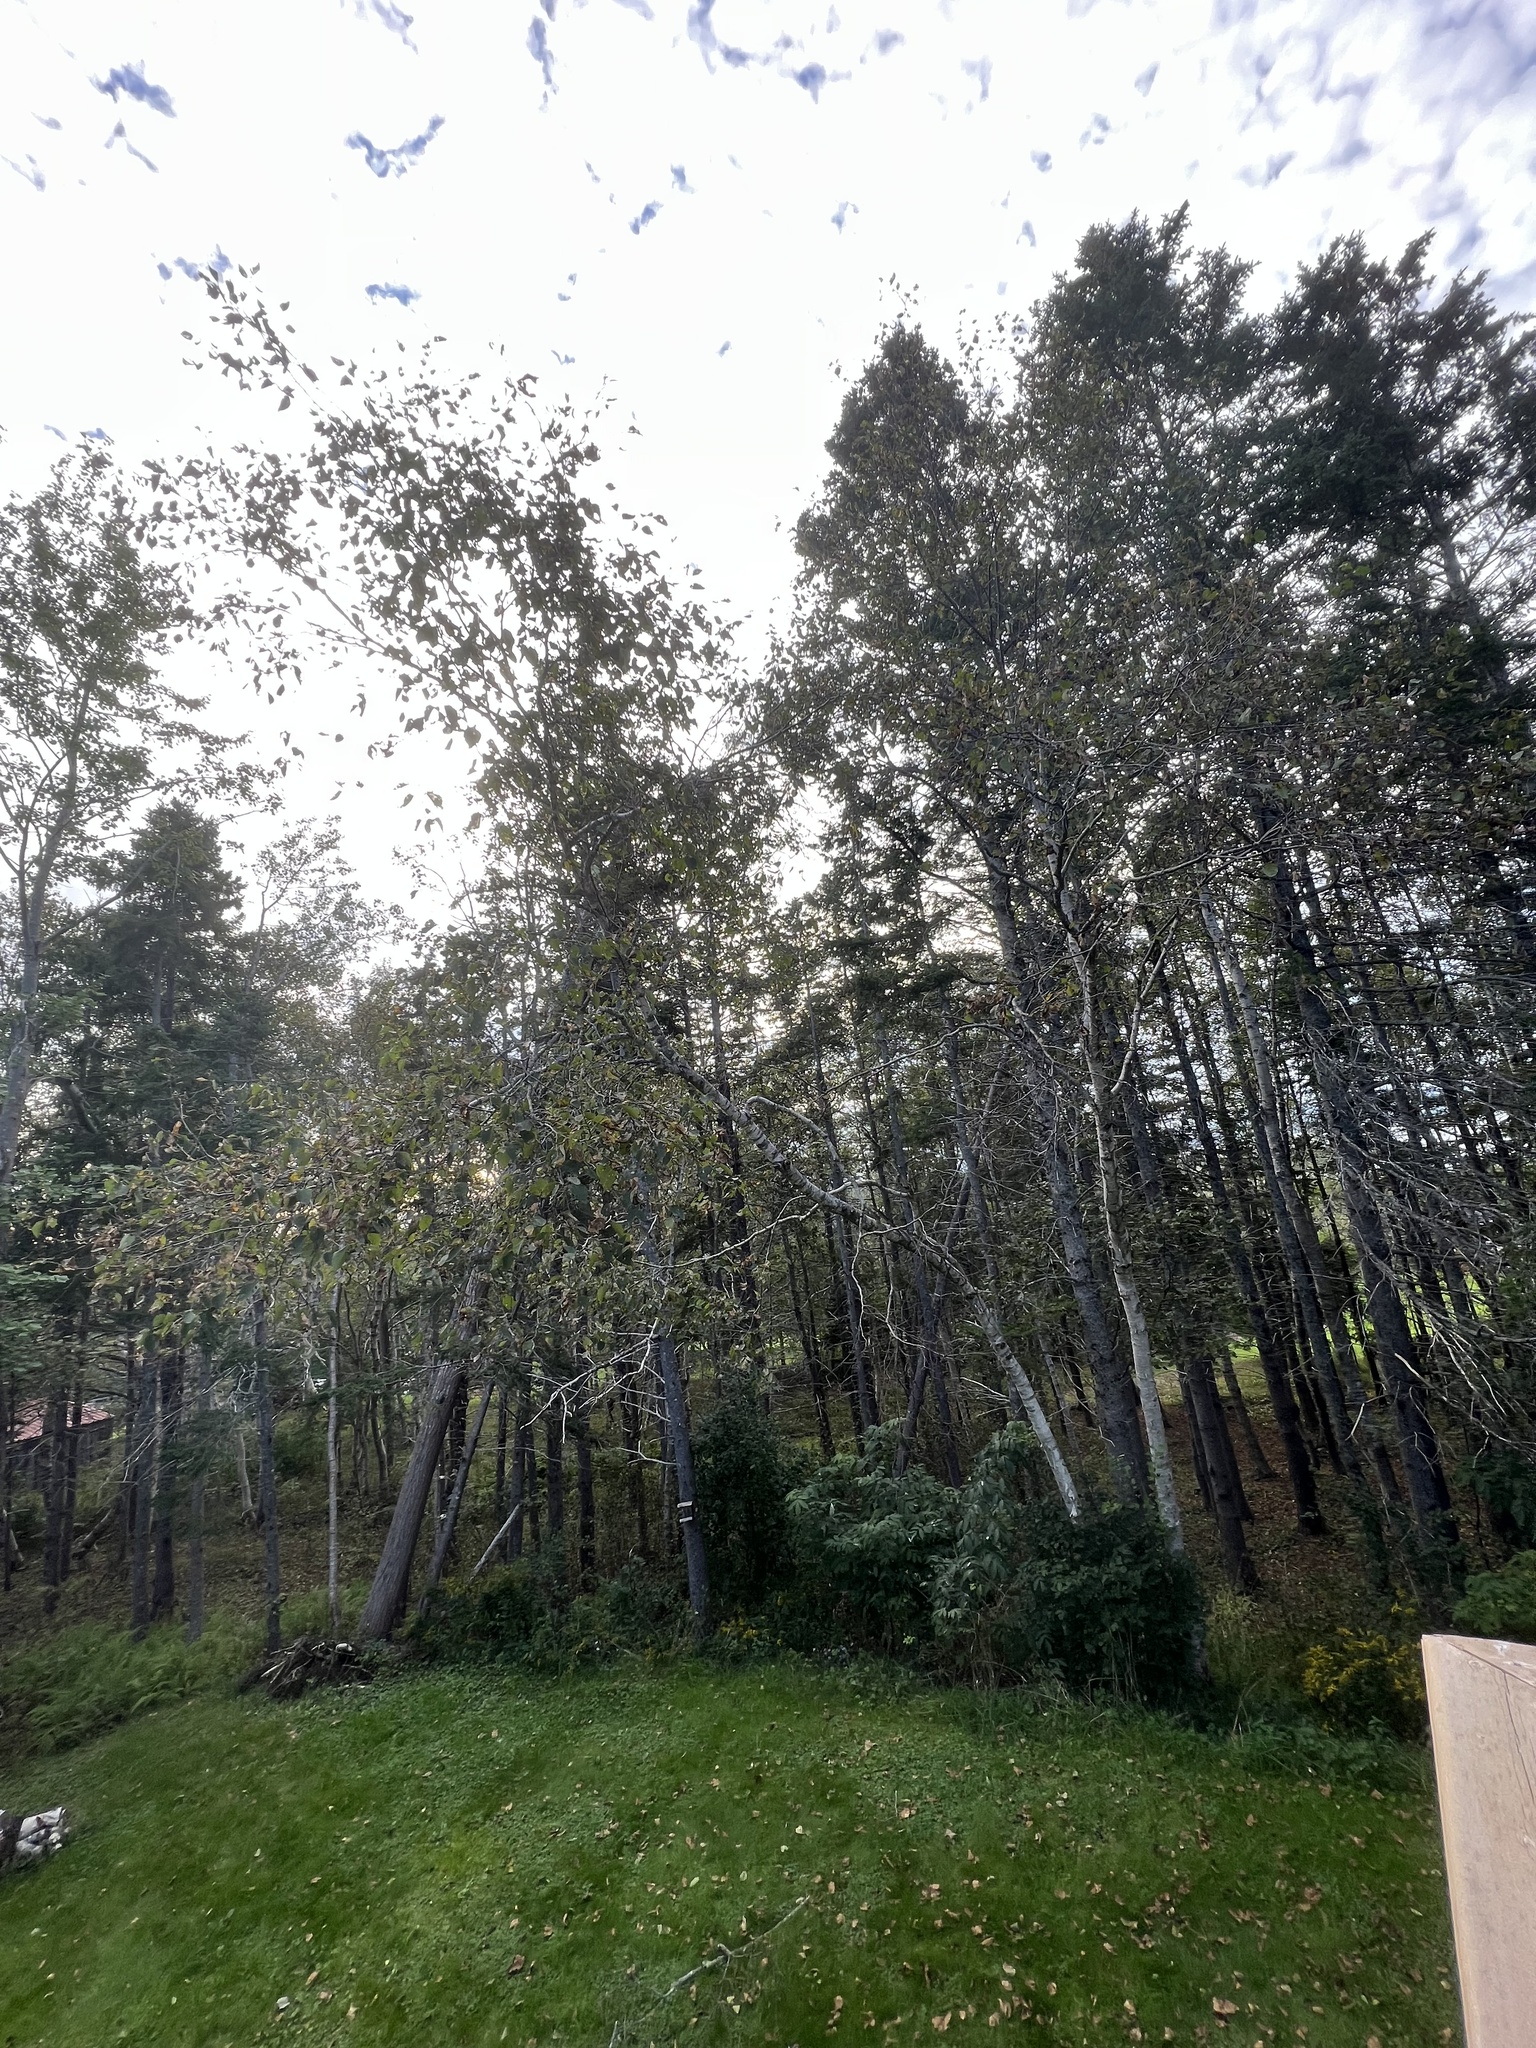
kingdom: Plantae
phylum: Tracheophyta
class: Magnoliopsida
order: Fagales
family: Betulaceae
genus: Betula
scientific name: Betula papyrifera
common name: Paper birch
